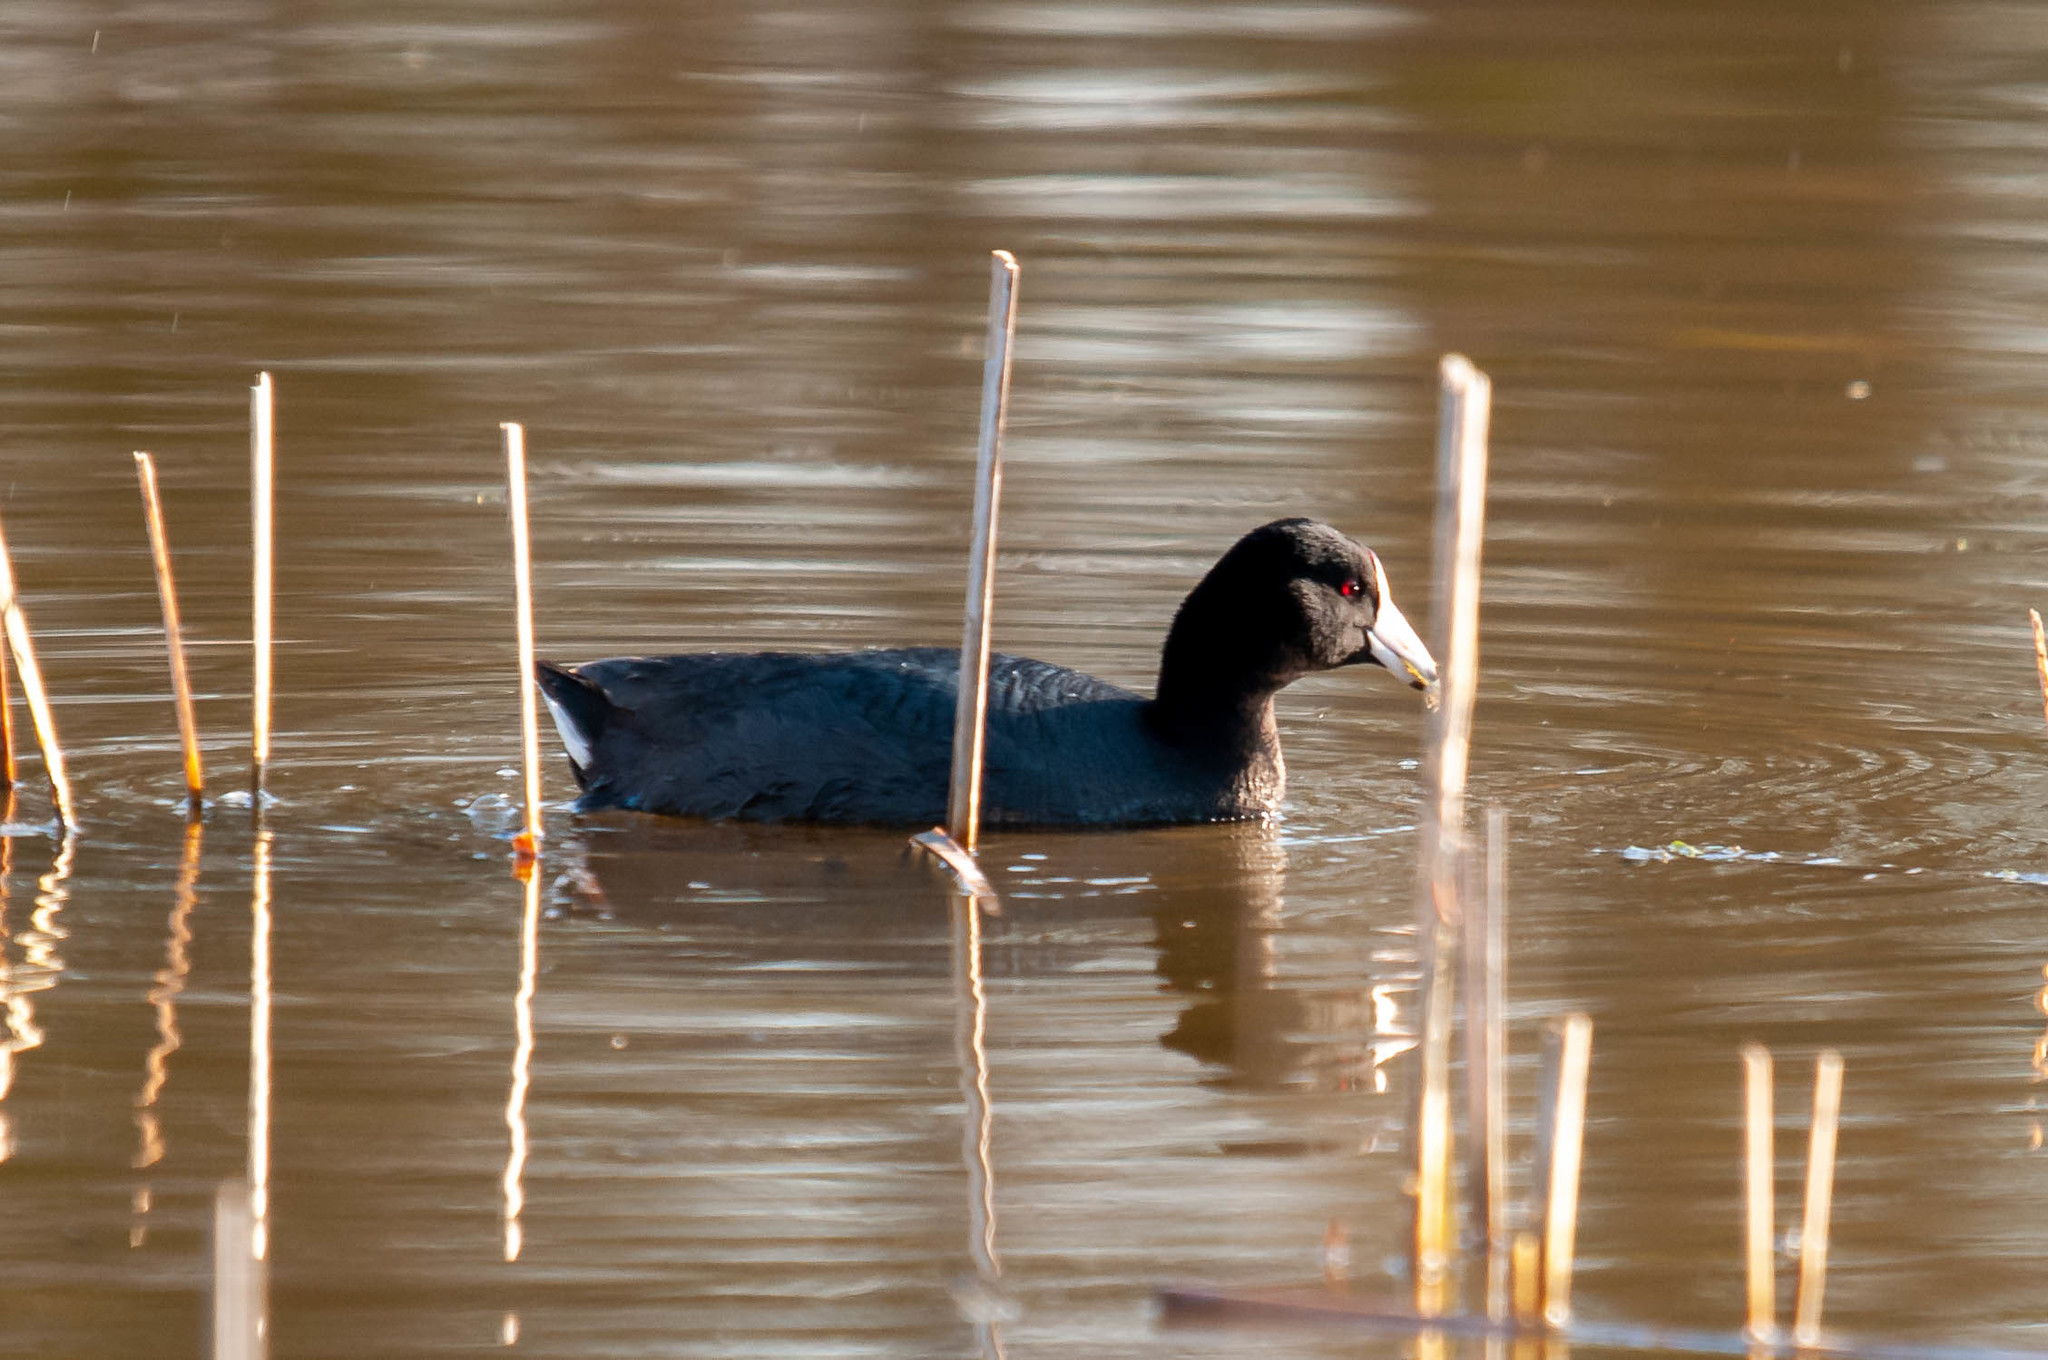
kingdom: Animalia
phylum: Chordata
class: Aves
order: Gruiformes
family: Rallidae
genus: Fulica
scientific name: Fulica americana
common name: American coot
